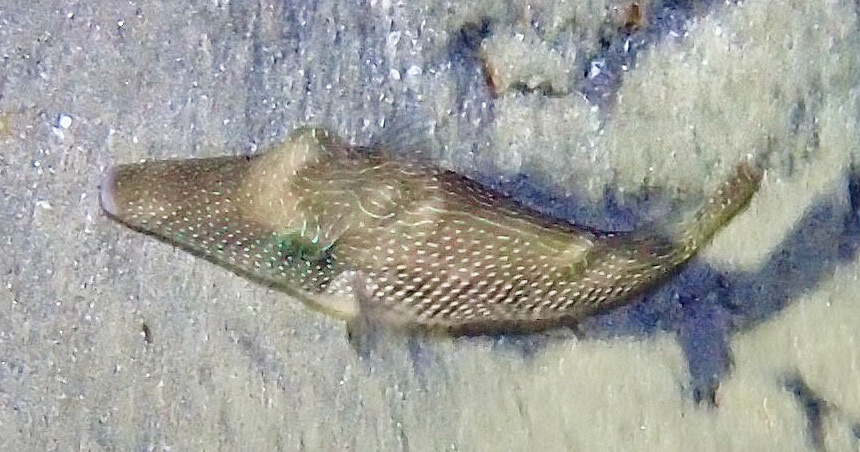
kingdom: Animalia
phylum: Chordata
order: Tetraodontiformes
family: Tetraodontidae
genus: Canthigaster
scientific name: Canthigaster margaritata
